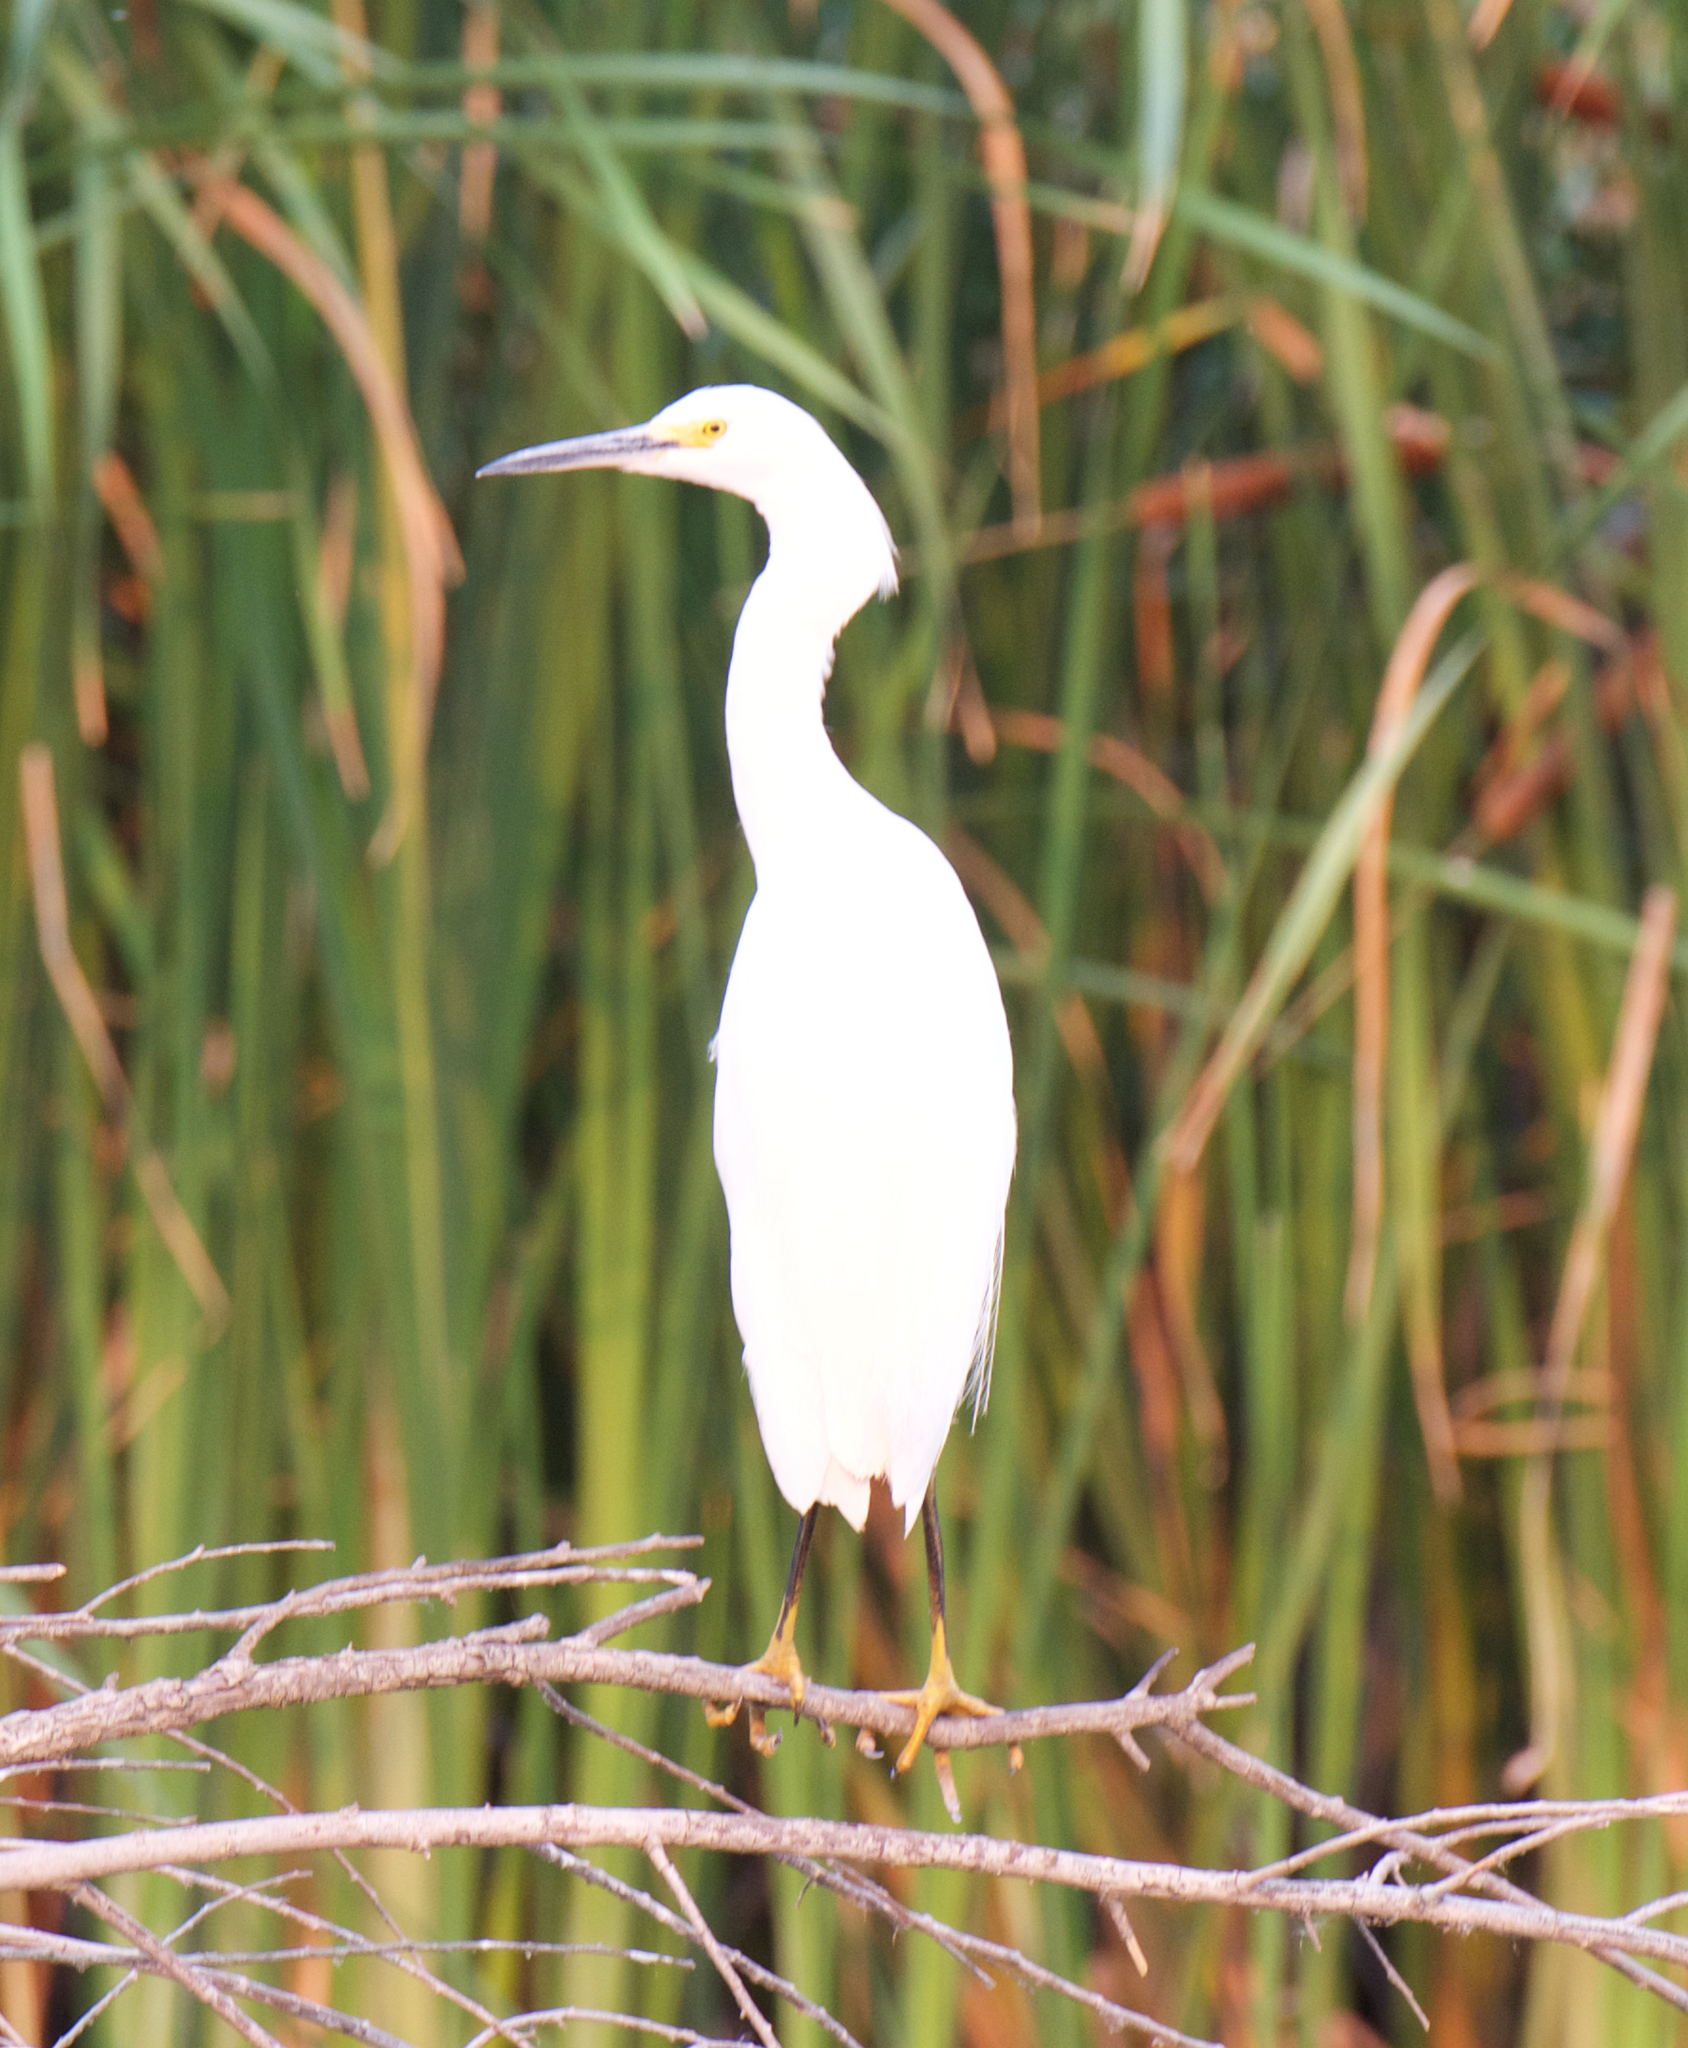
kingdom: Animalia
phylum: Chordata
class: Aves
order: Pelecaniformes
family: Ardeidae
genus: Egretta
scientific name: Egretta thula
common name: Snowy egret
